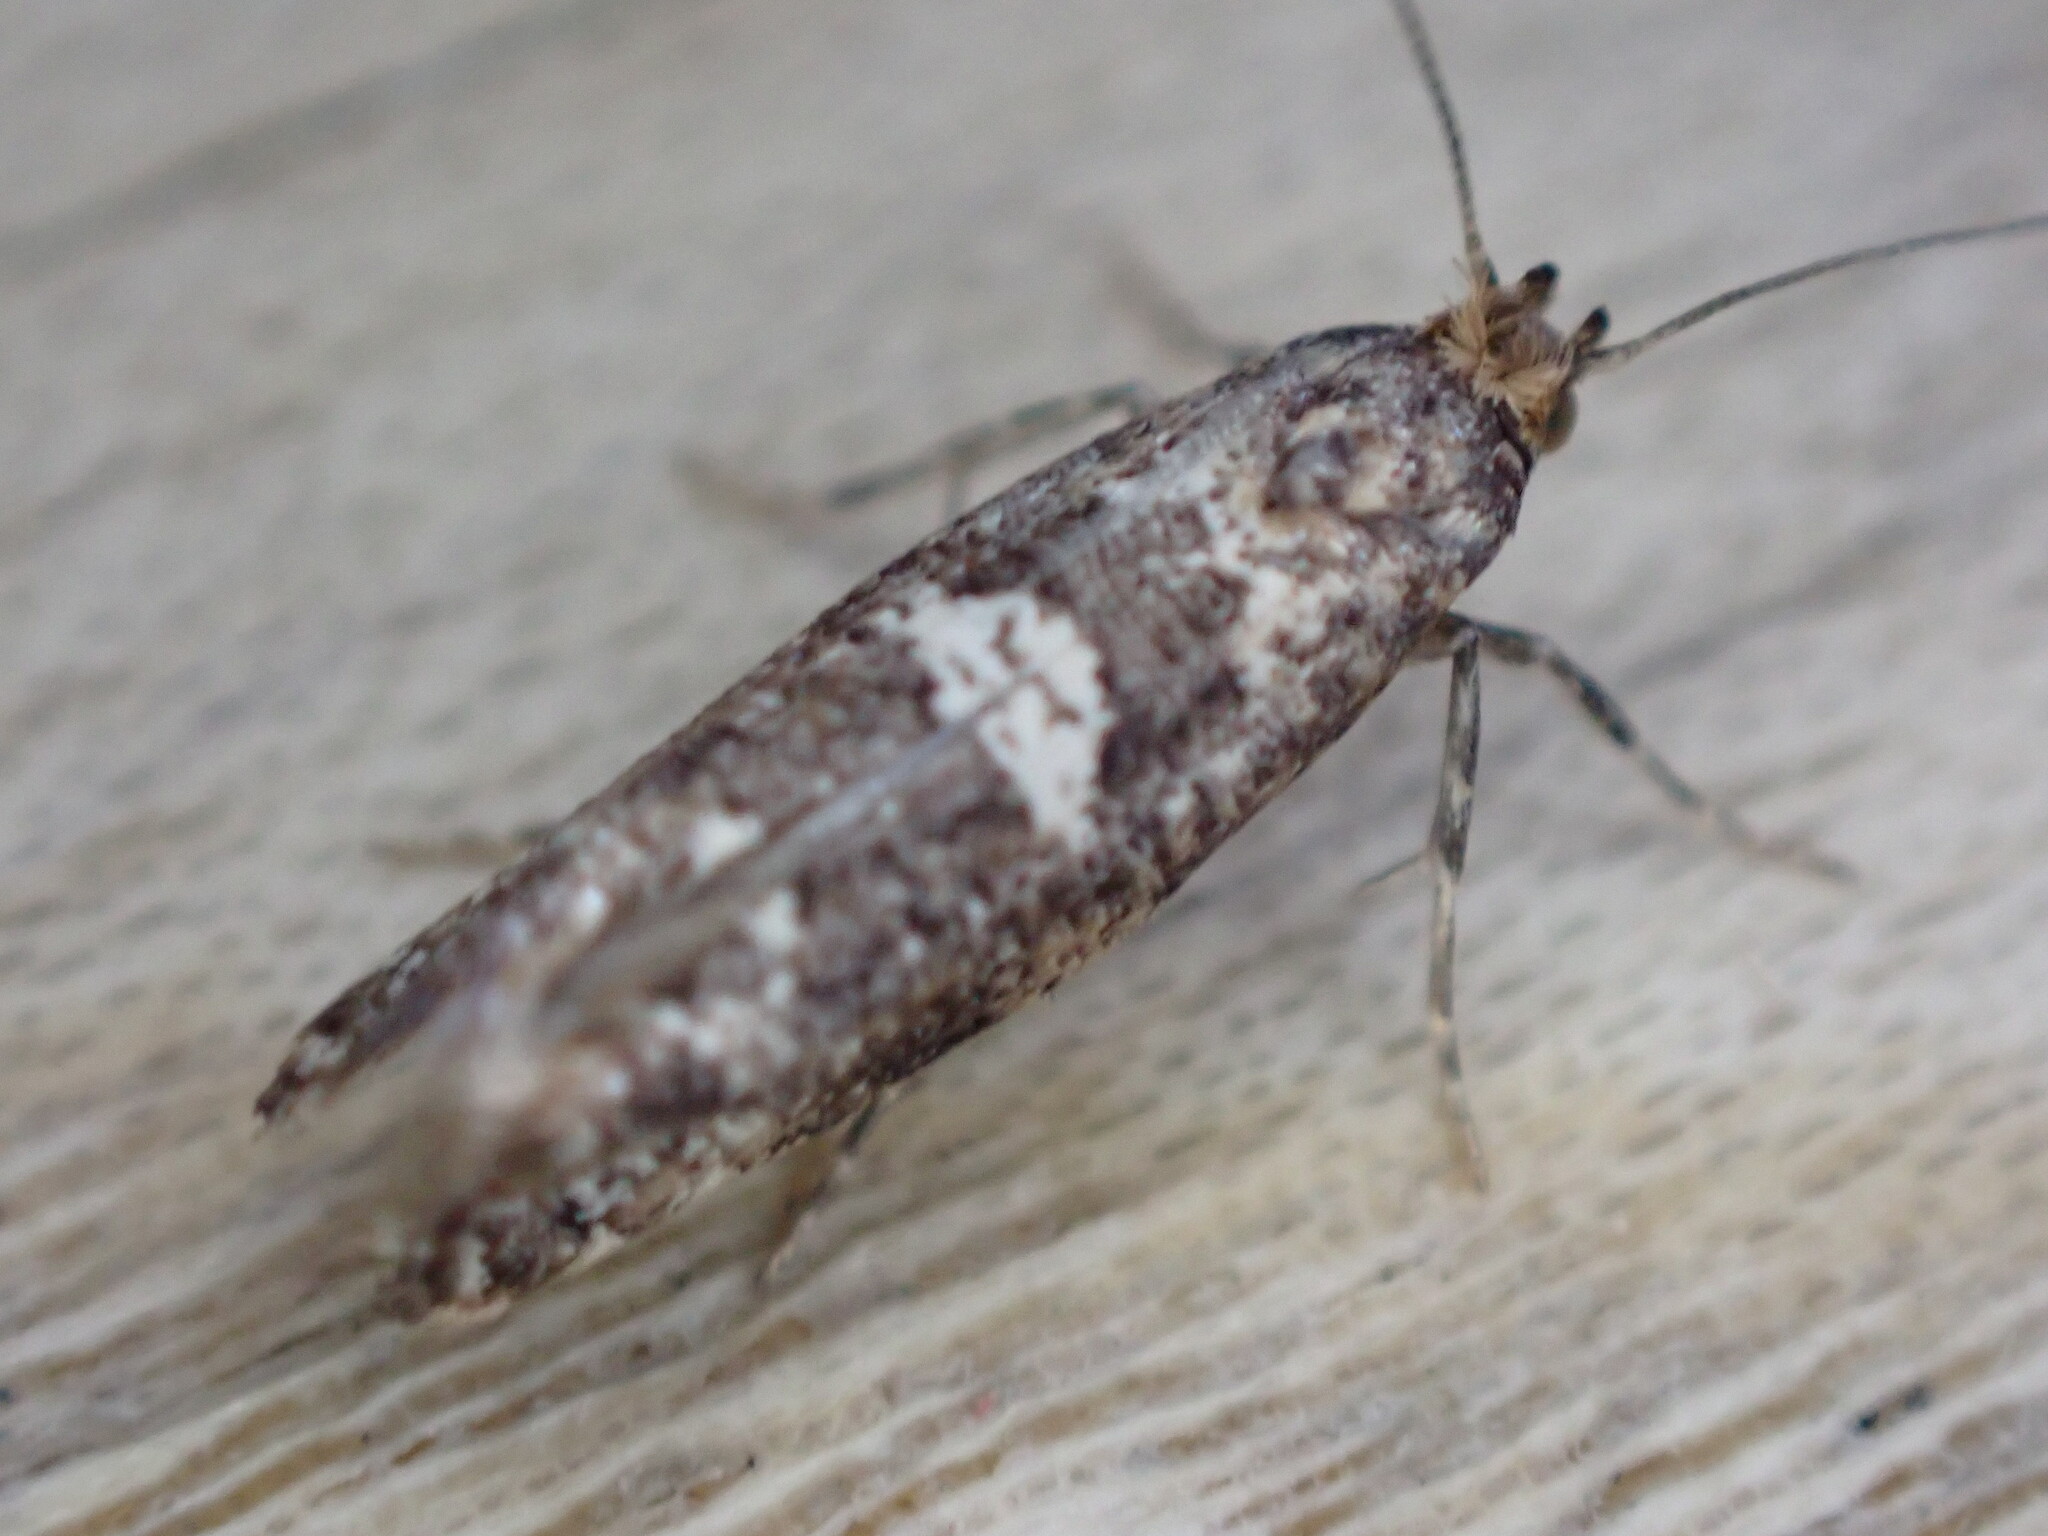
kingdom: Animalia
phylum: Arthropoda
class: Insecta
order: Lepidoptera
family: Glyphipterigidae
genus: Acrolepia
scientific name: Acrolepia assectella
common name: Onion leaf miner
